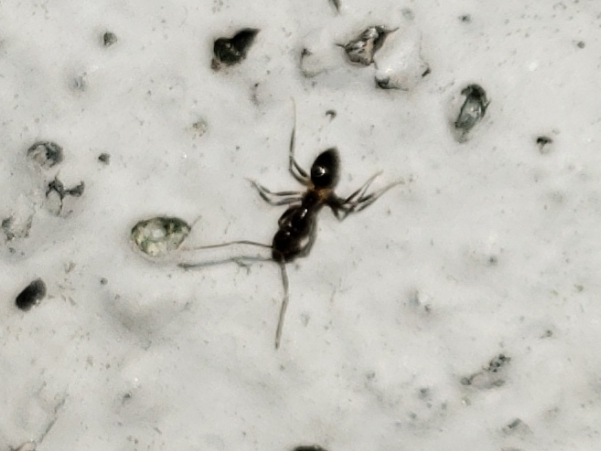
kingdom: Animalia
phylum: Arthropoda
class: Insecta
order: Hymenoptera
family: Formicidae
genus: Nylanderia
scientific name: Nylanderia steinheili
